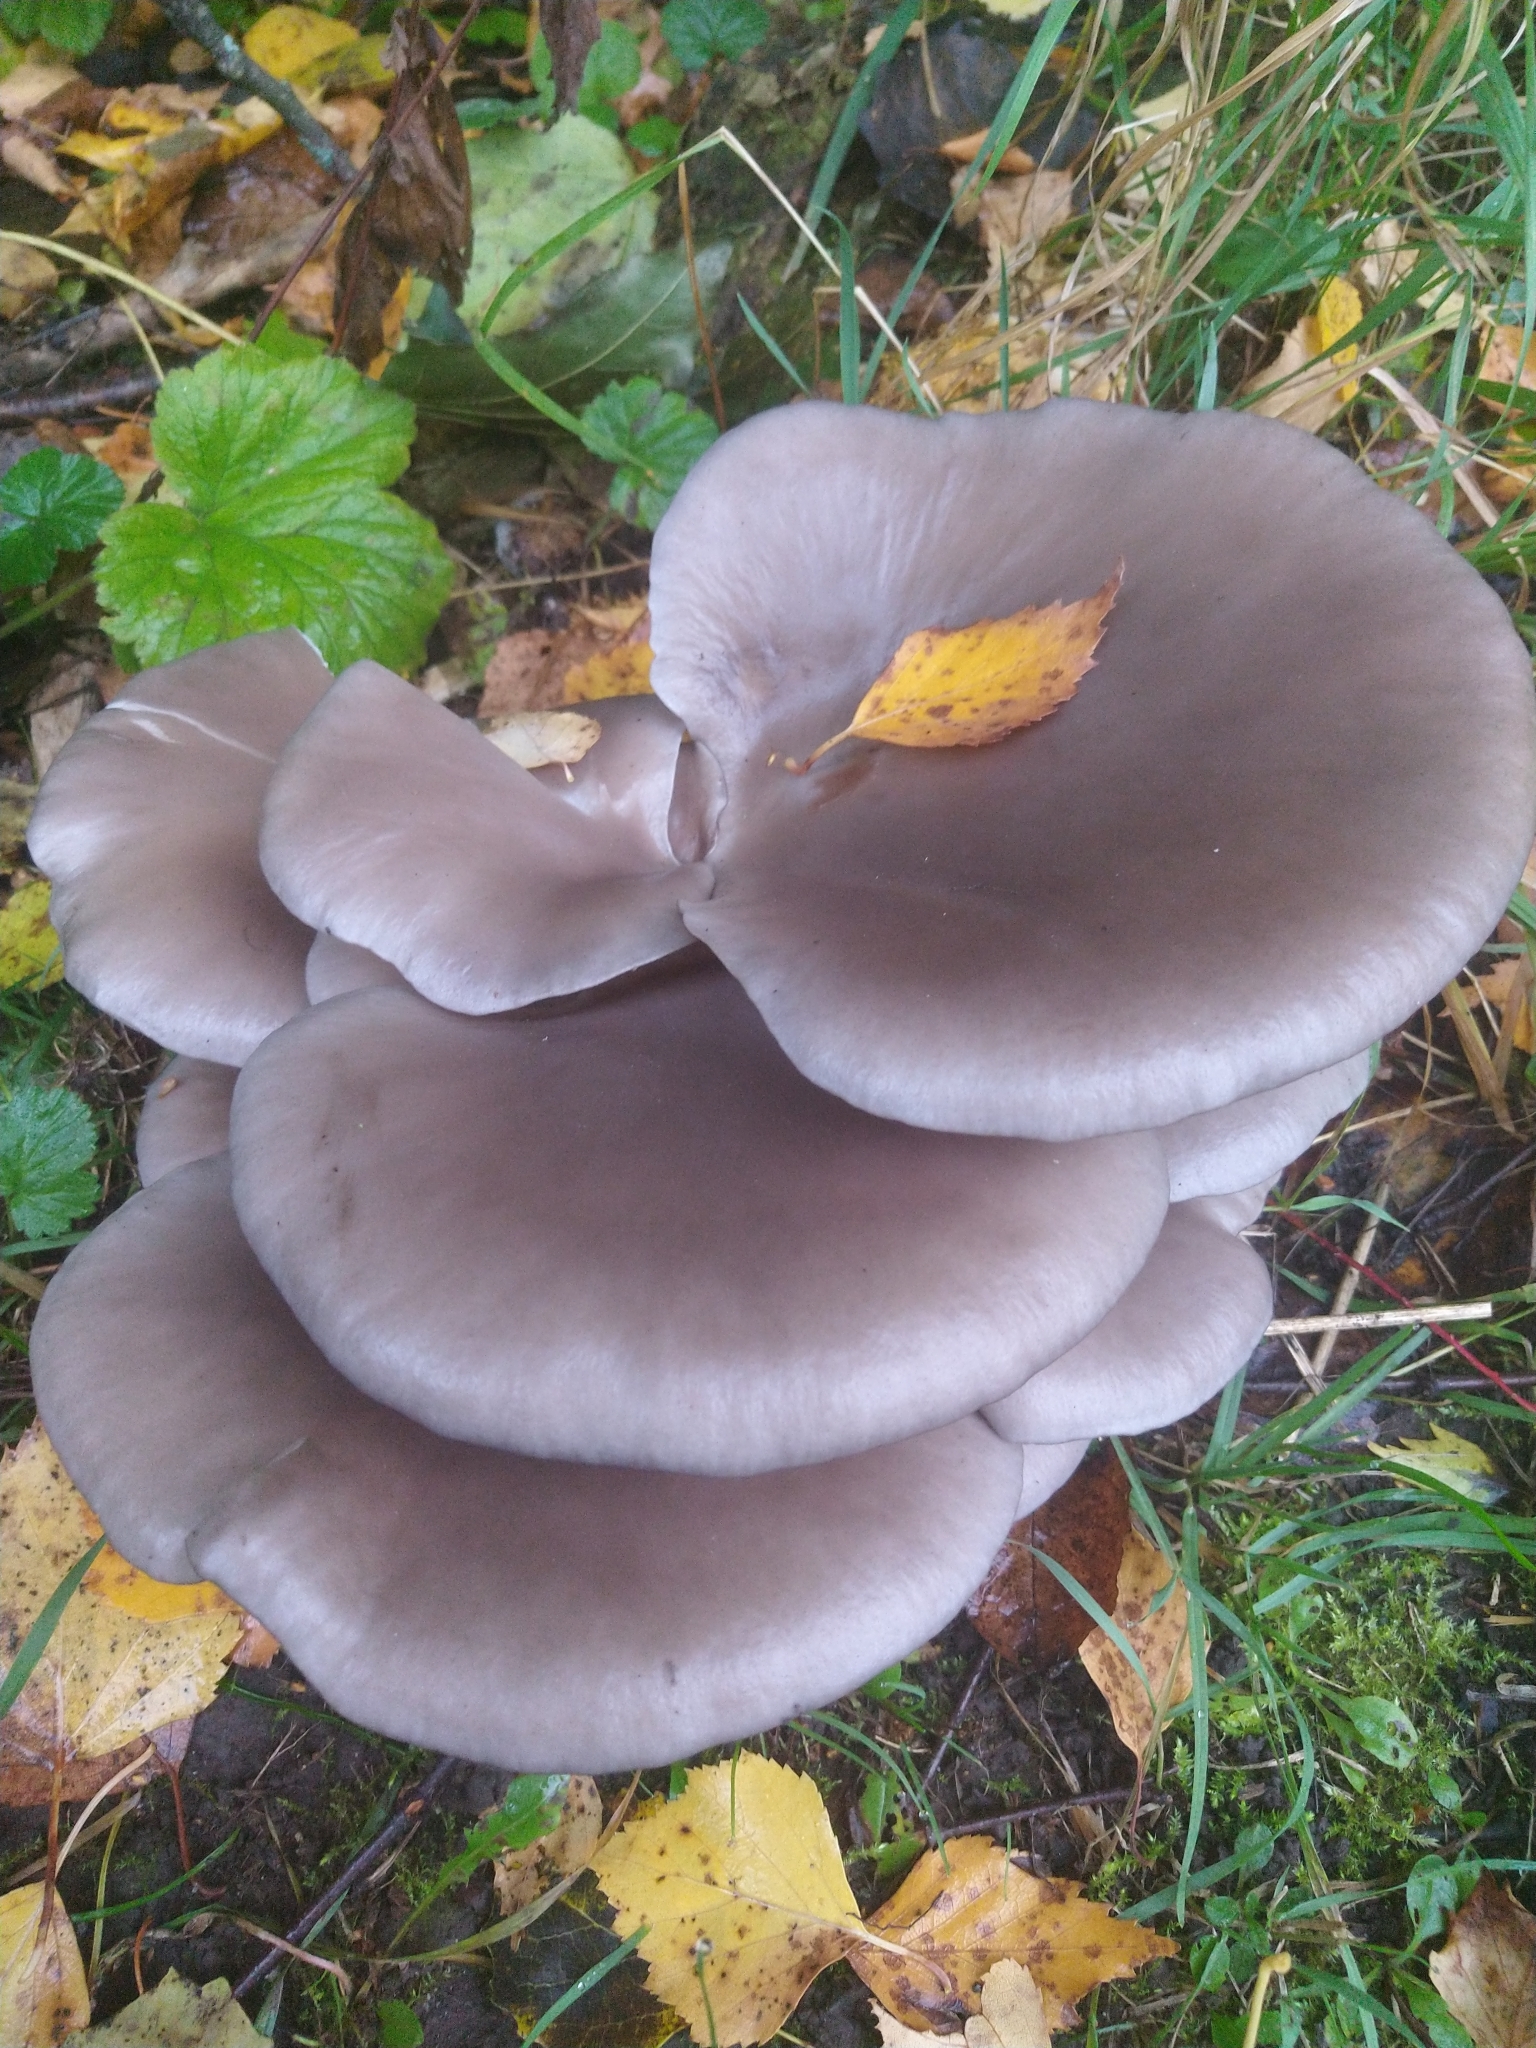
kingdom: Fungi
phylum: Basidiomycota
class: Agaricomycetes
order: Agaricales
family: Pleurotaceae
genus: Pleurotus
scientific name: Pleurotus ostreatus
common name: Oyster mushroom
